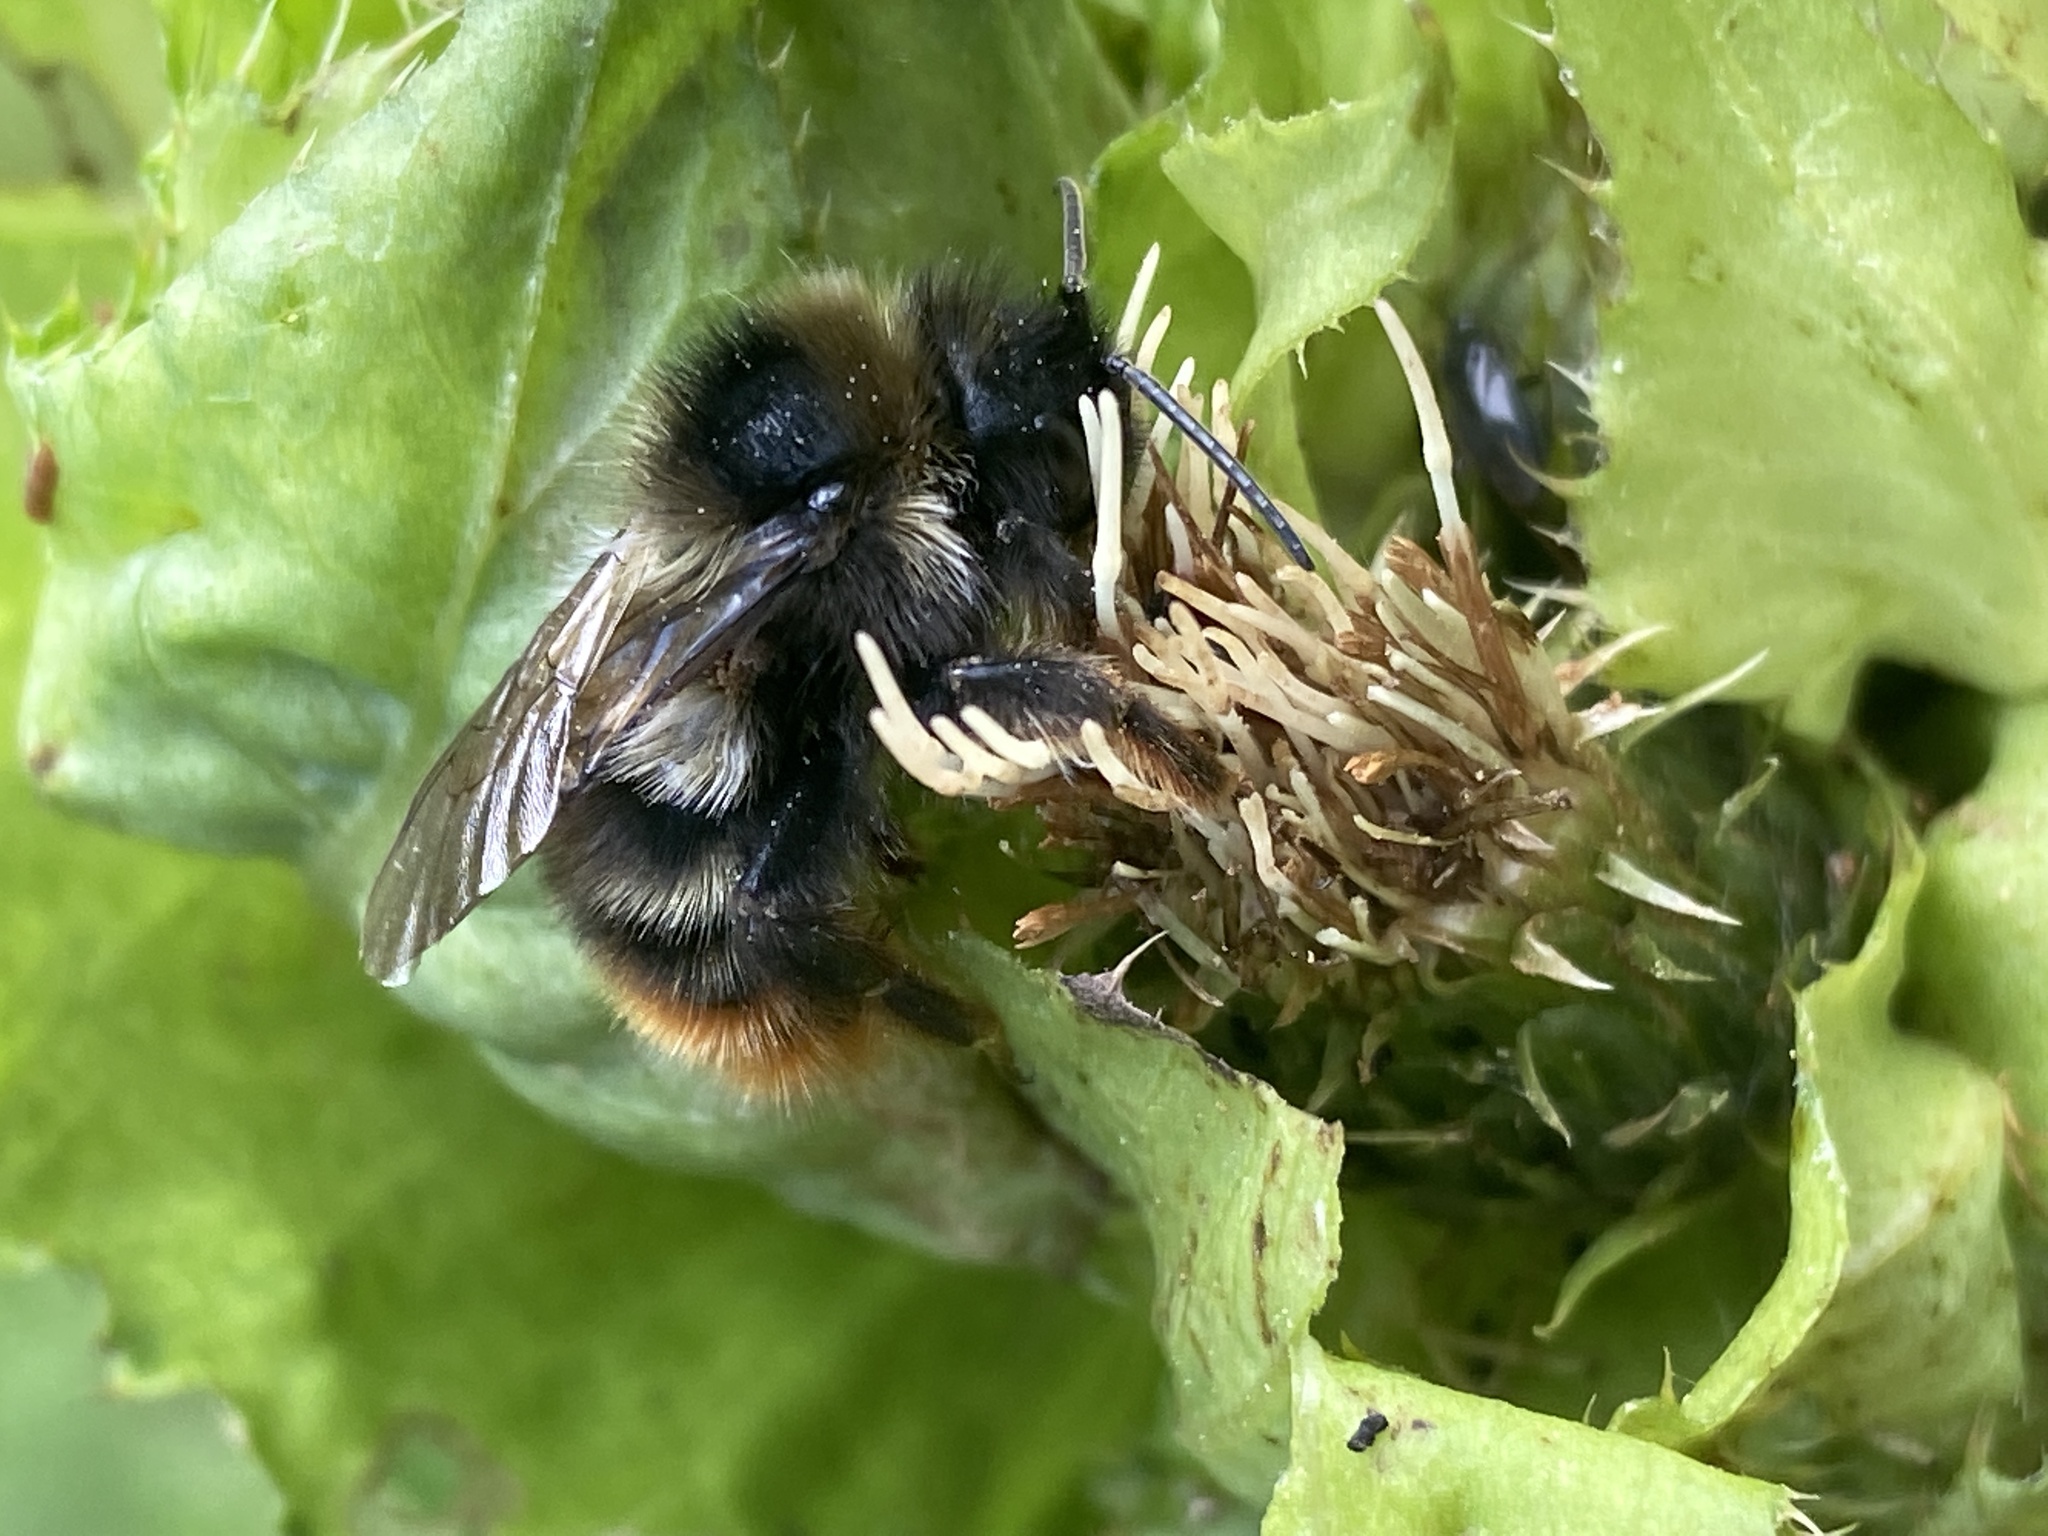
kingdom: Animalia
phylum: Arthropoda
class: Insecta
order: Hymenoptera
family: Apidae
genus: Bombus
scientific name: Bombus rupestris
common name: Hill cuckoo-bee
